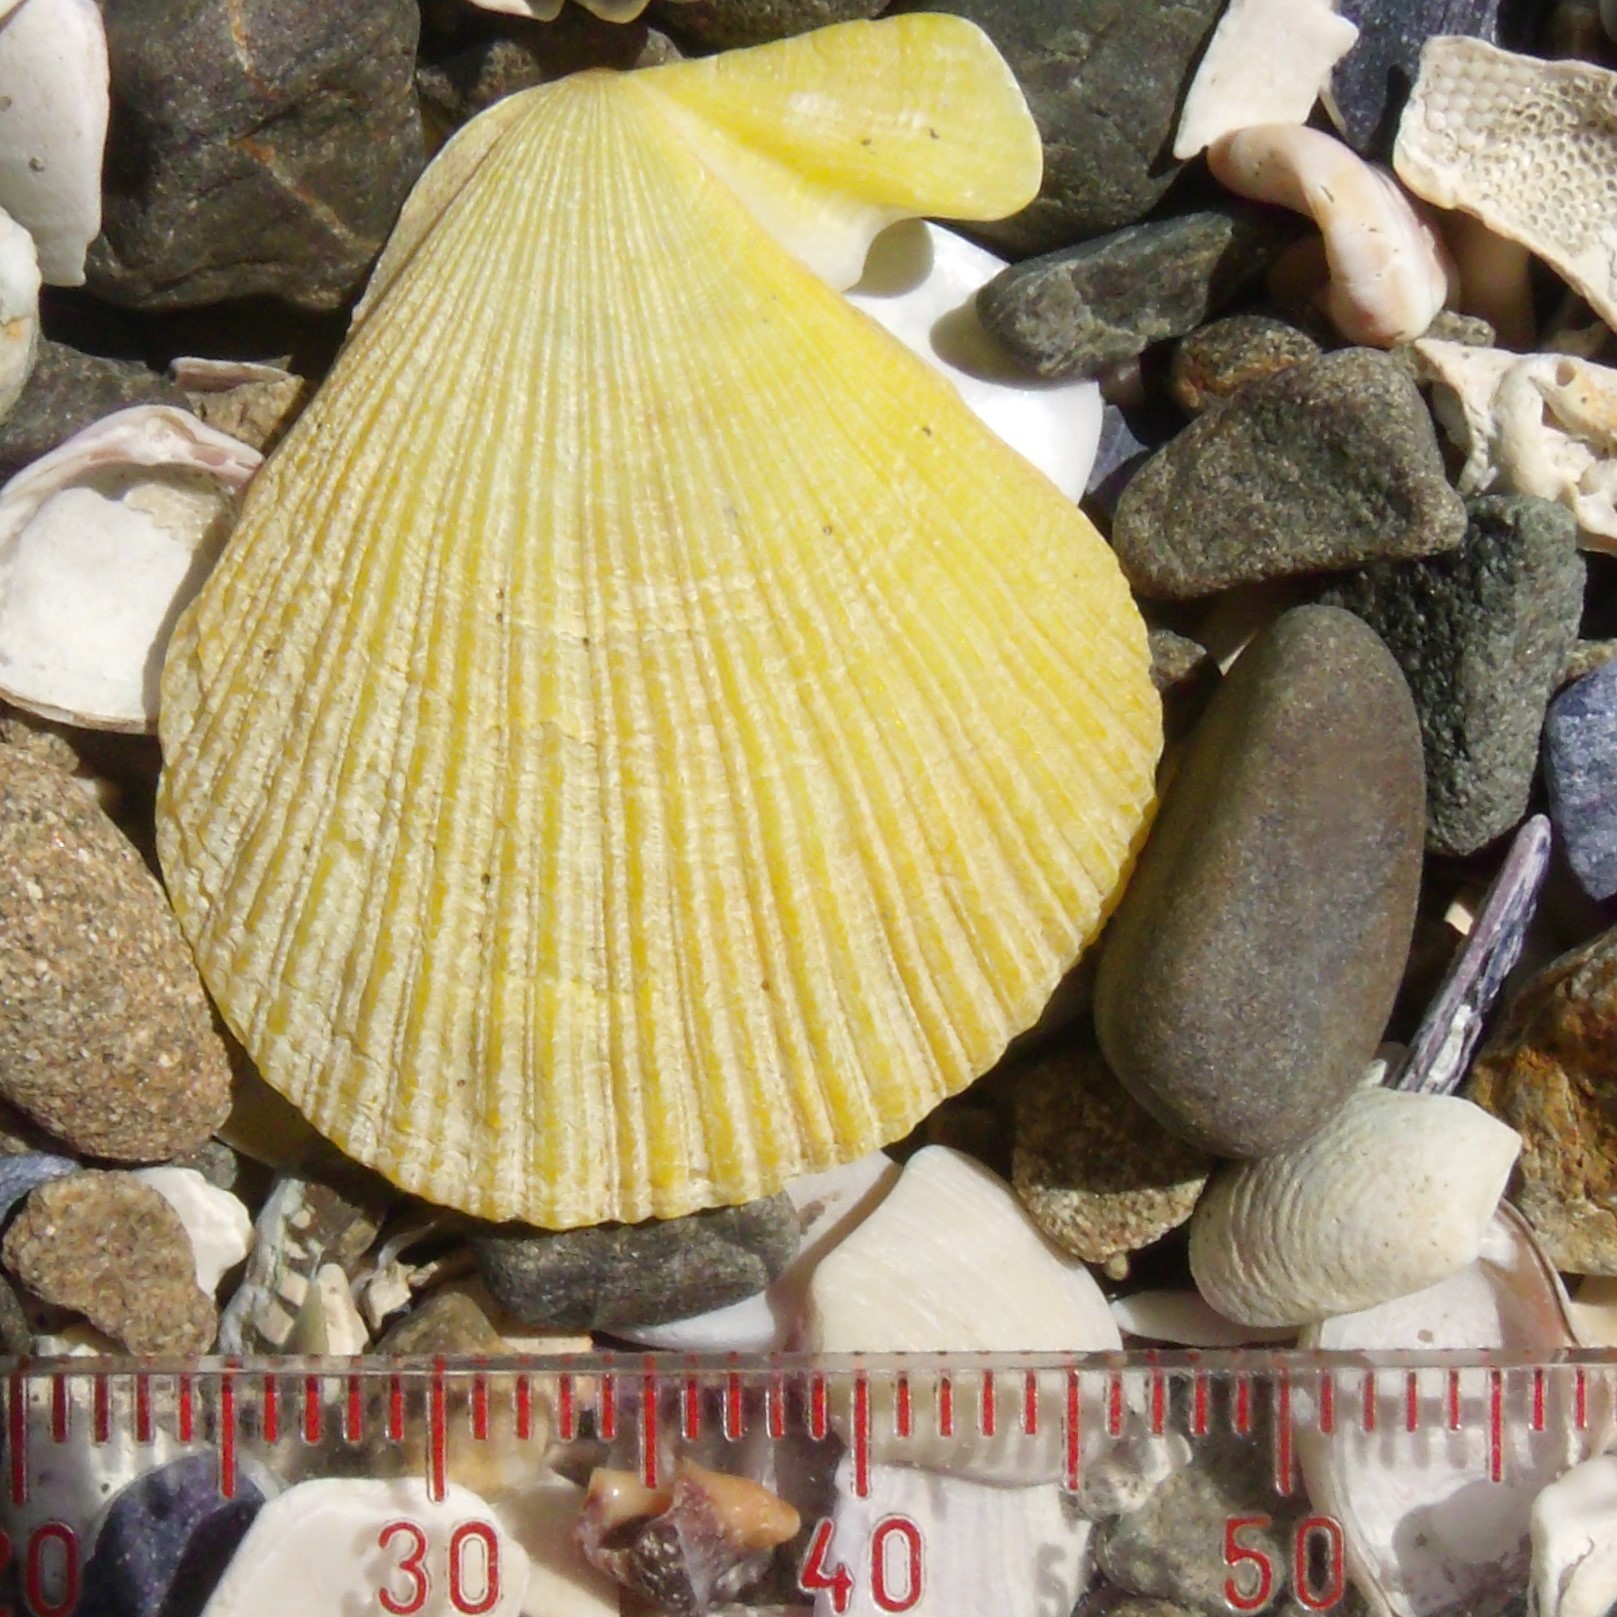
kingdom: Animalia
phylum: Mollusca
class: Bivalvia
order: Pectinida
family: Pectinidae
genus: Talochlamys
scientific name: Talochlamys zelandiae
